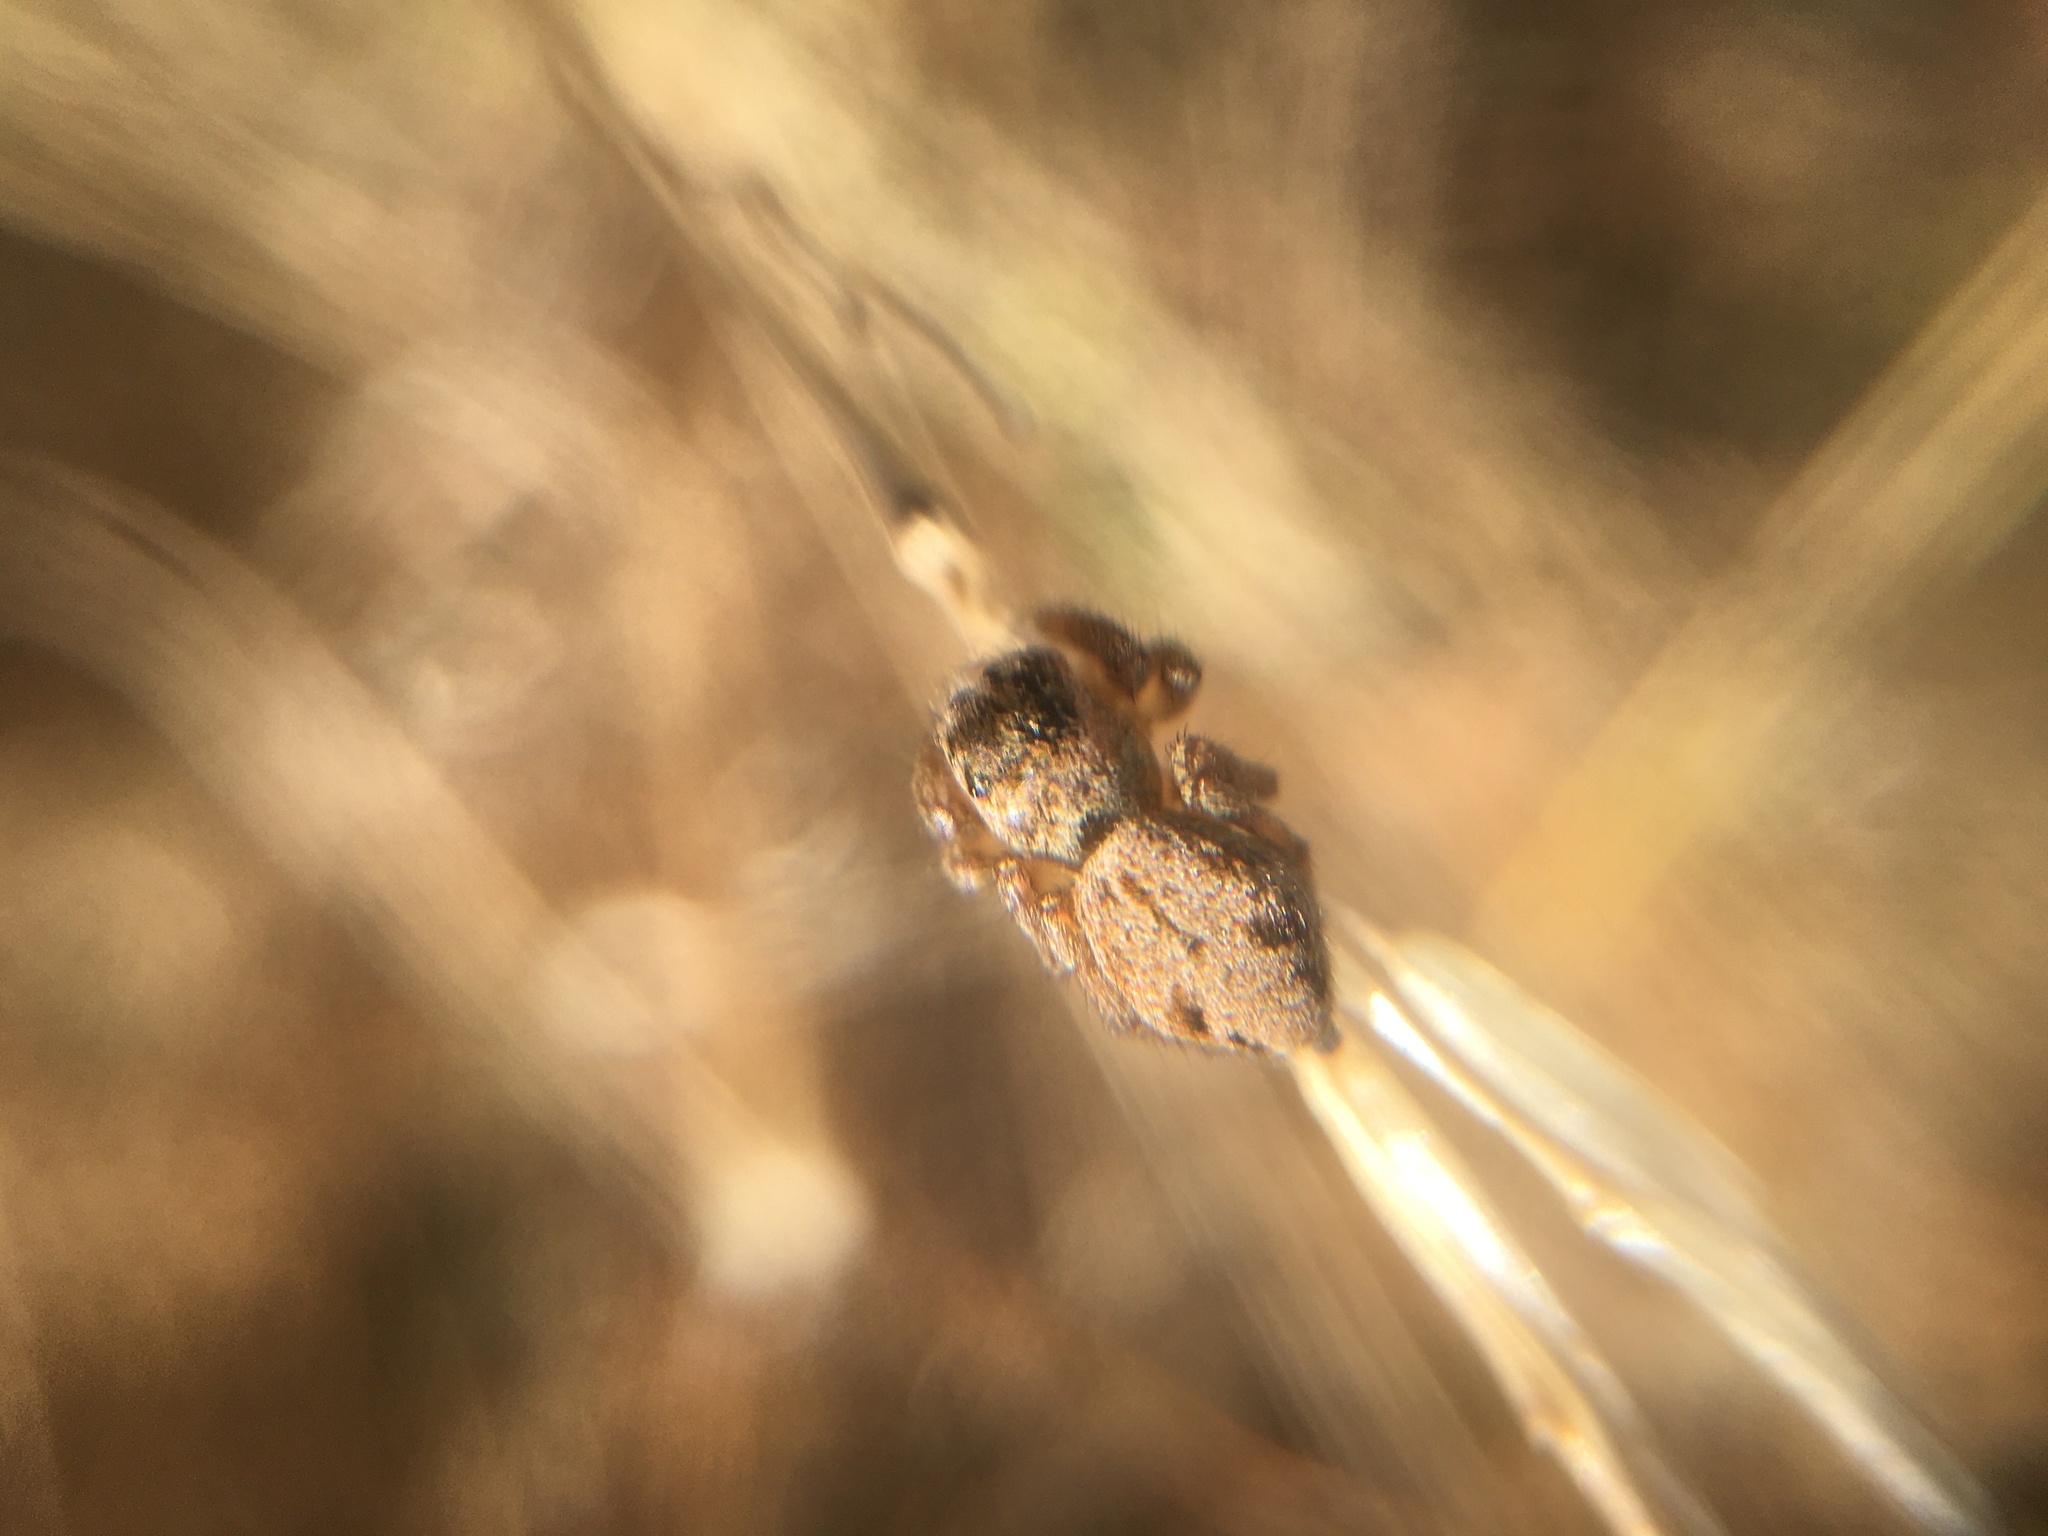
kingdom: Animalia
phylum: Arthropoda
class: Arachnida
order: Araneae
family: Salticidae
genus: Evarcha
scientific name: Evarcha arcuata
